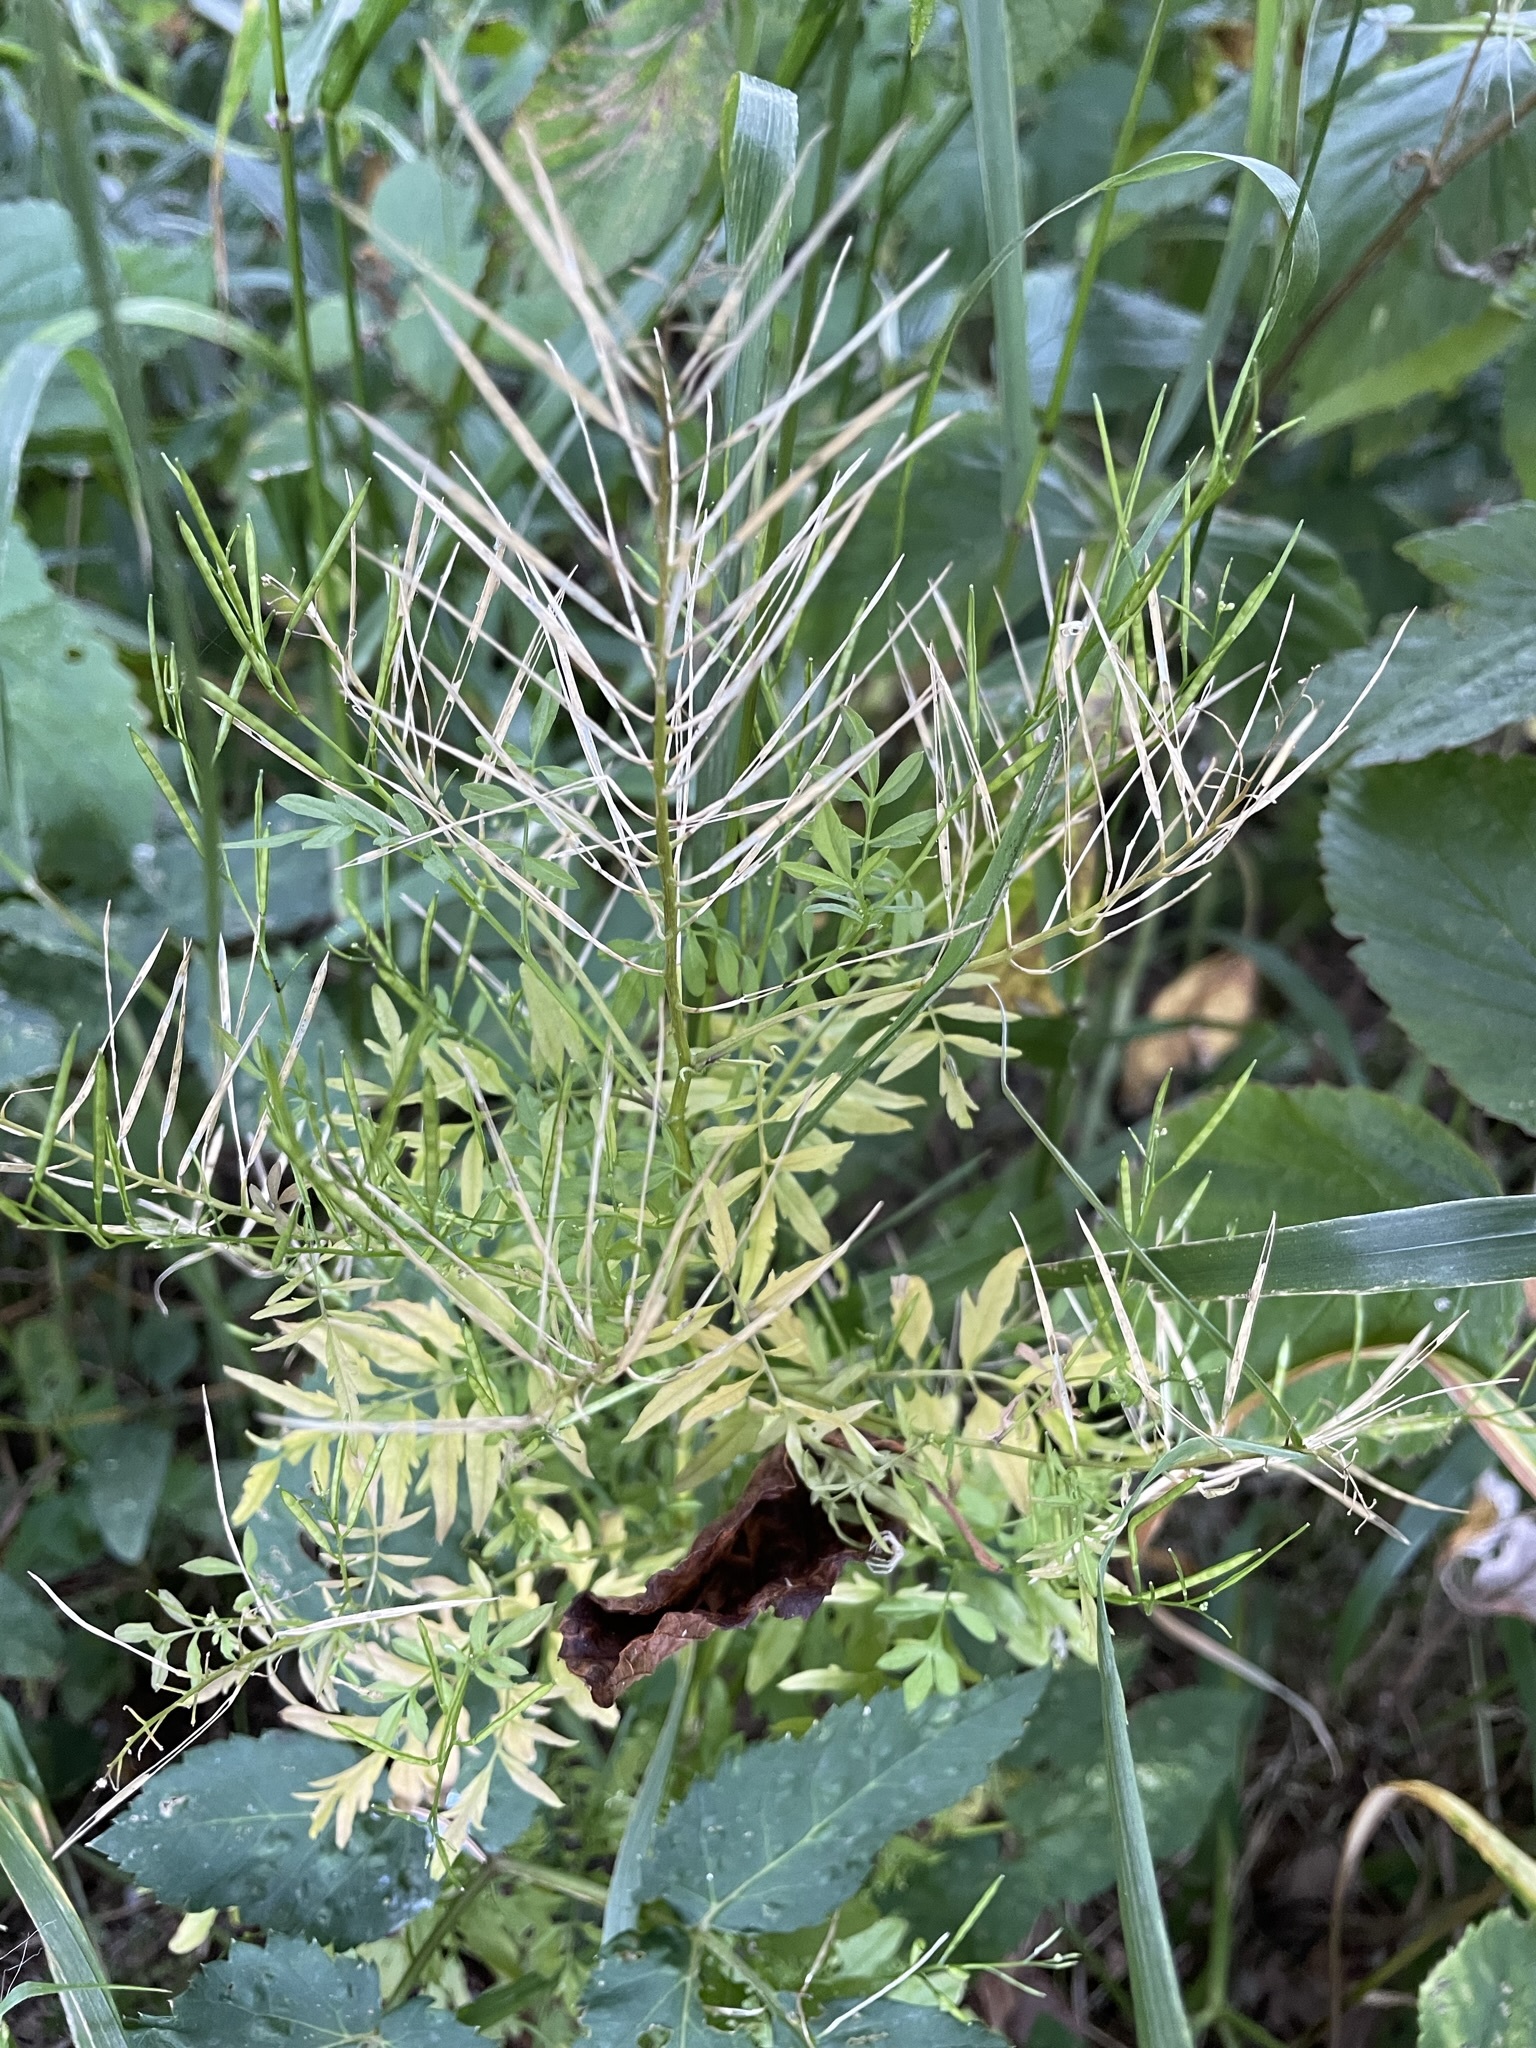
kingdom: Plantae
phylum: Tracheophyta
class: Magnoliopsida
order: Brassicales
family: Brassicaceae
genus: Cardamine
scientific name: Cardamine impatiens
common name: Narrow-leaved bitter-cress
